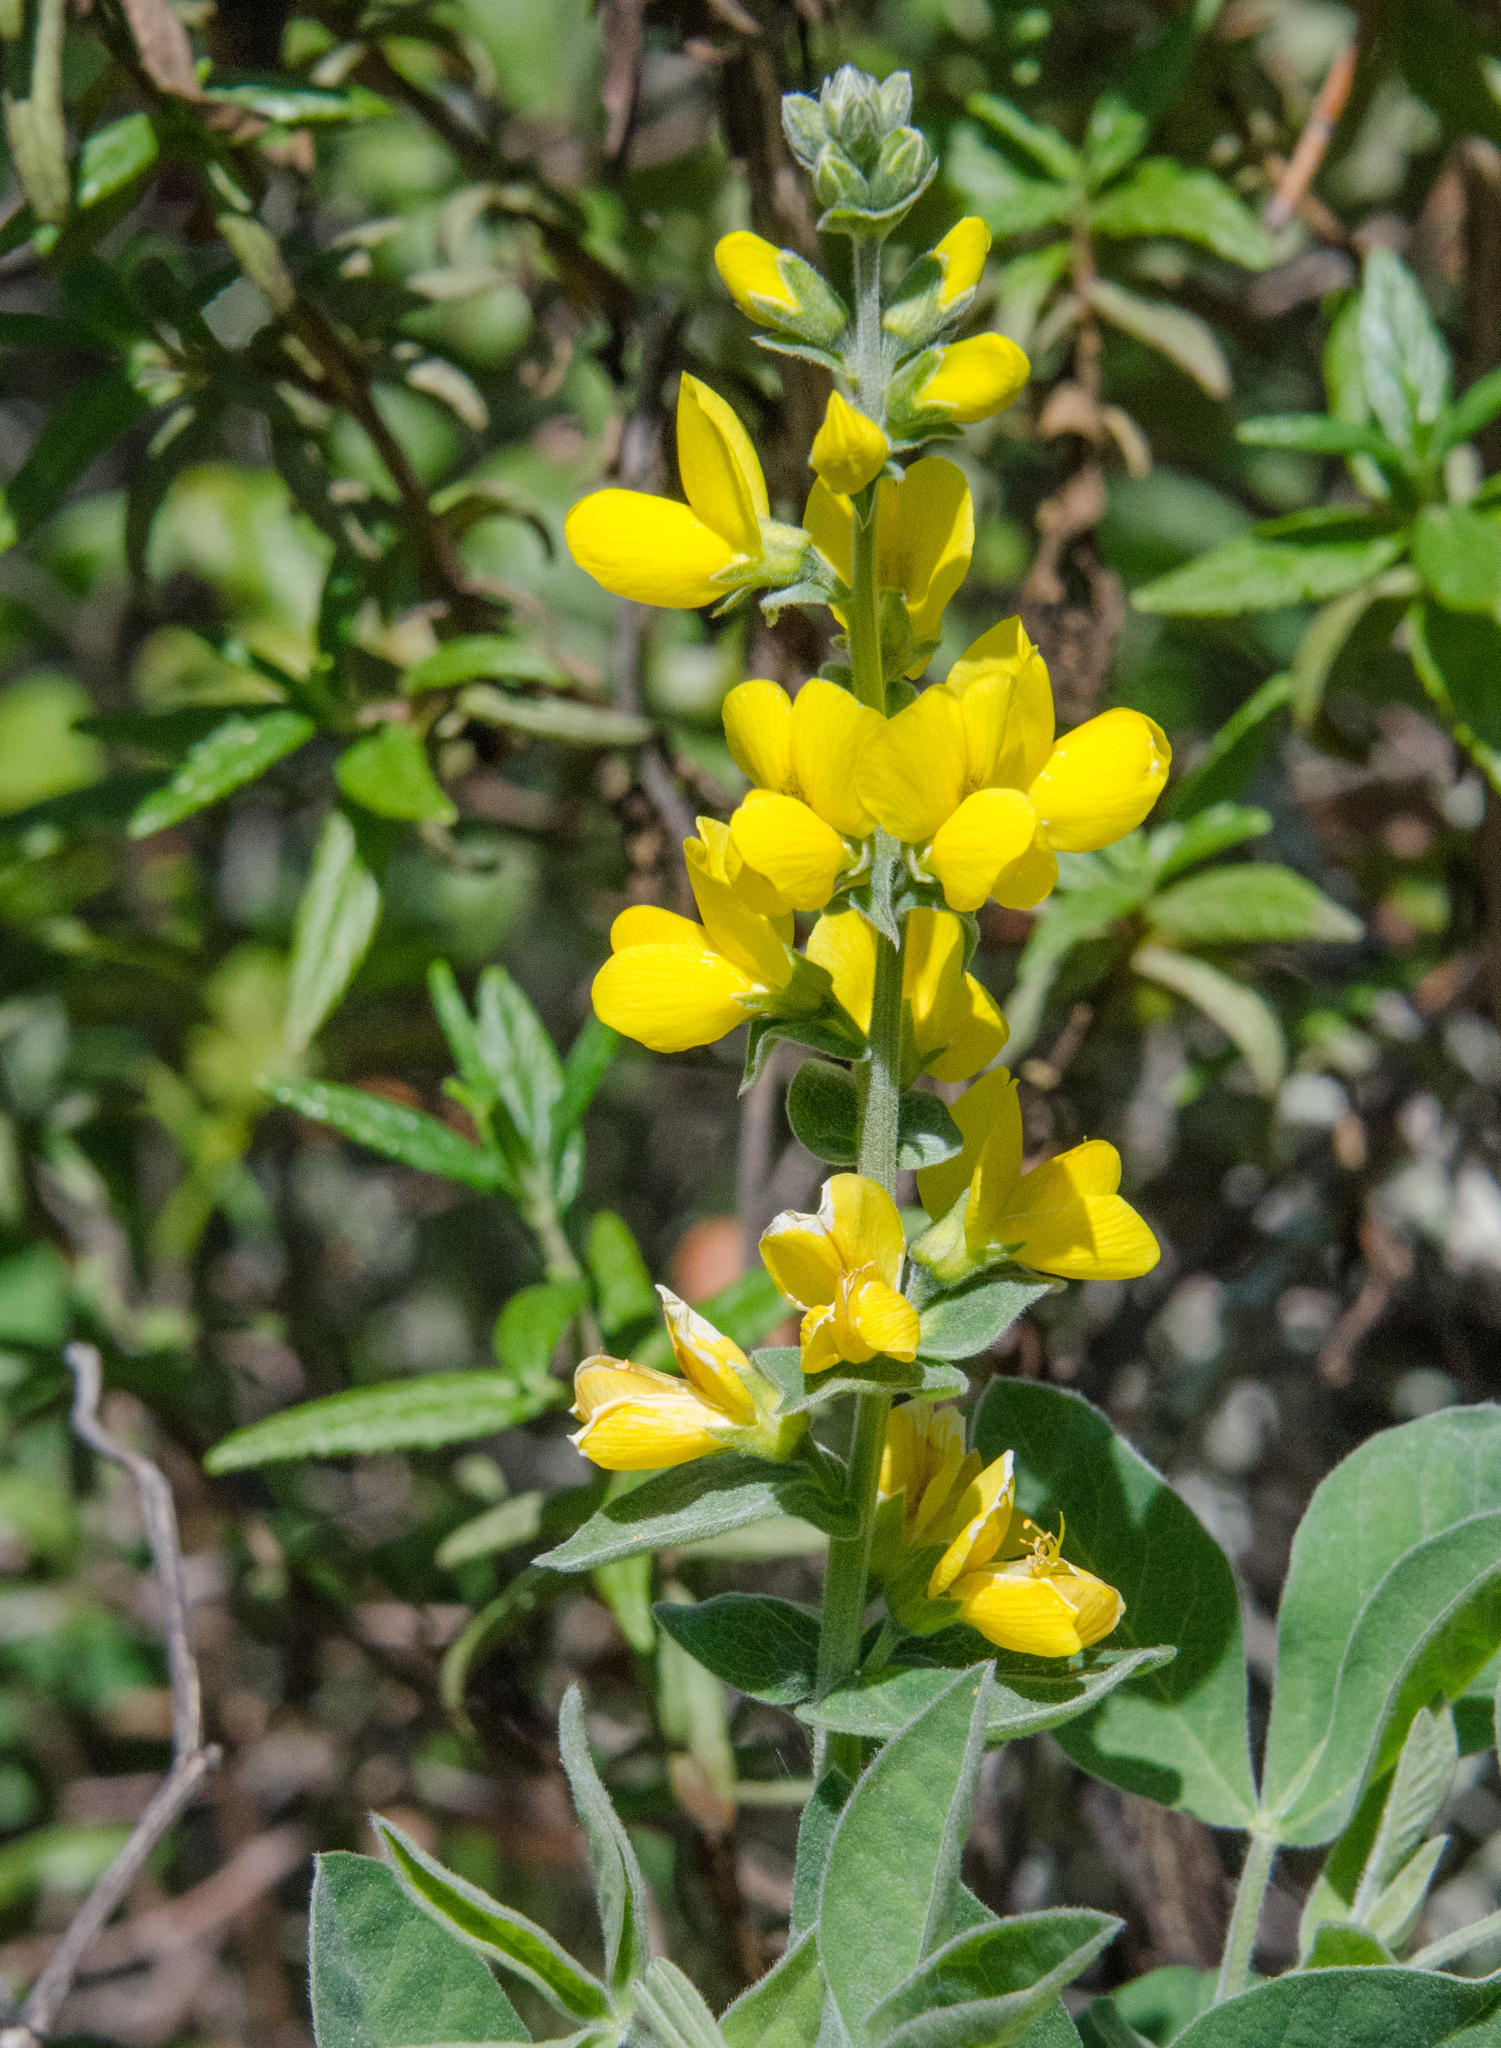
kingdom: Plantae
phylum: Tracheophyta
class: Magnoliopsida
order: Fabales
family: Fabaceae
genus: Thermopsis
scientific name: Thermopsis californica
